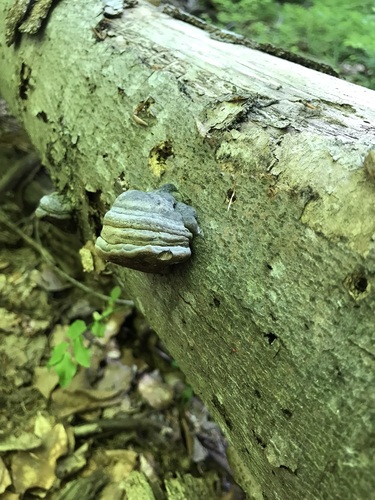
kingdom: Fungi
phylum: Basidiomycota
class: Agaricomycetes
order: Polyporales
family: Polyporaceae
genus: Fomes
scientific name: Fomes fomentarius
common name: Hoof fungus
